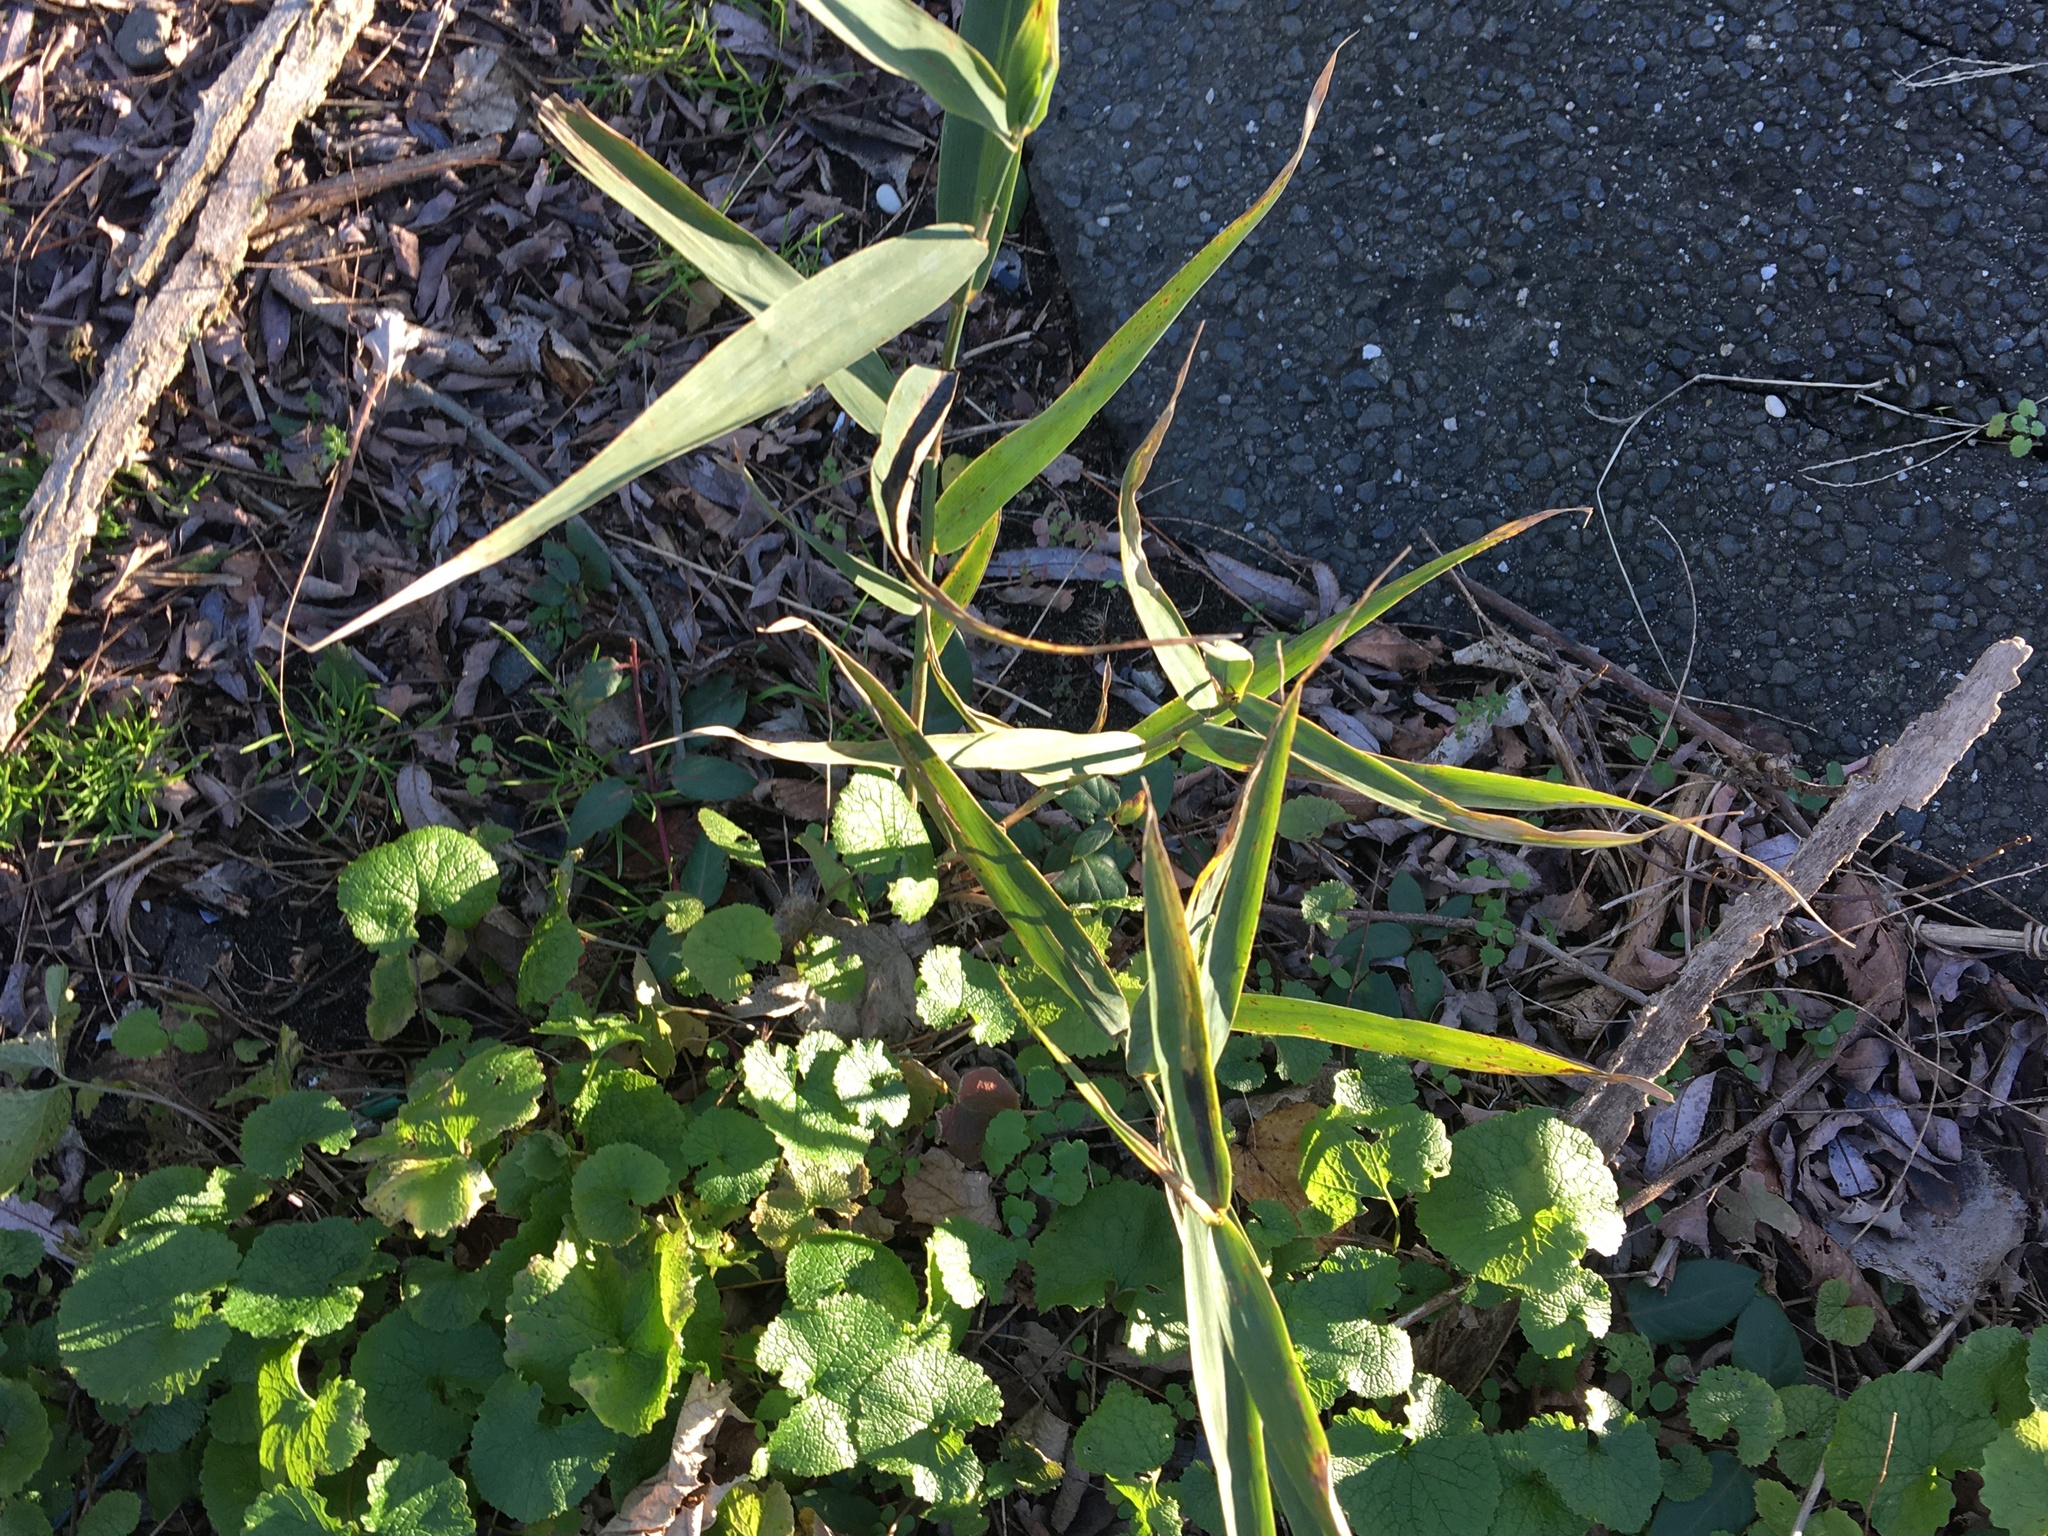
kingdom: Plantae
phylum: Tracheophyta
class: Liliopsida
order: Poales
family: Poaceae
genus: Phragmites
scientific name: Phragmites australis
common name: Common reed
